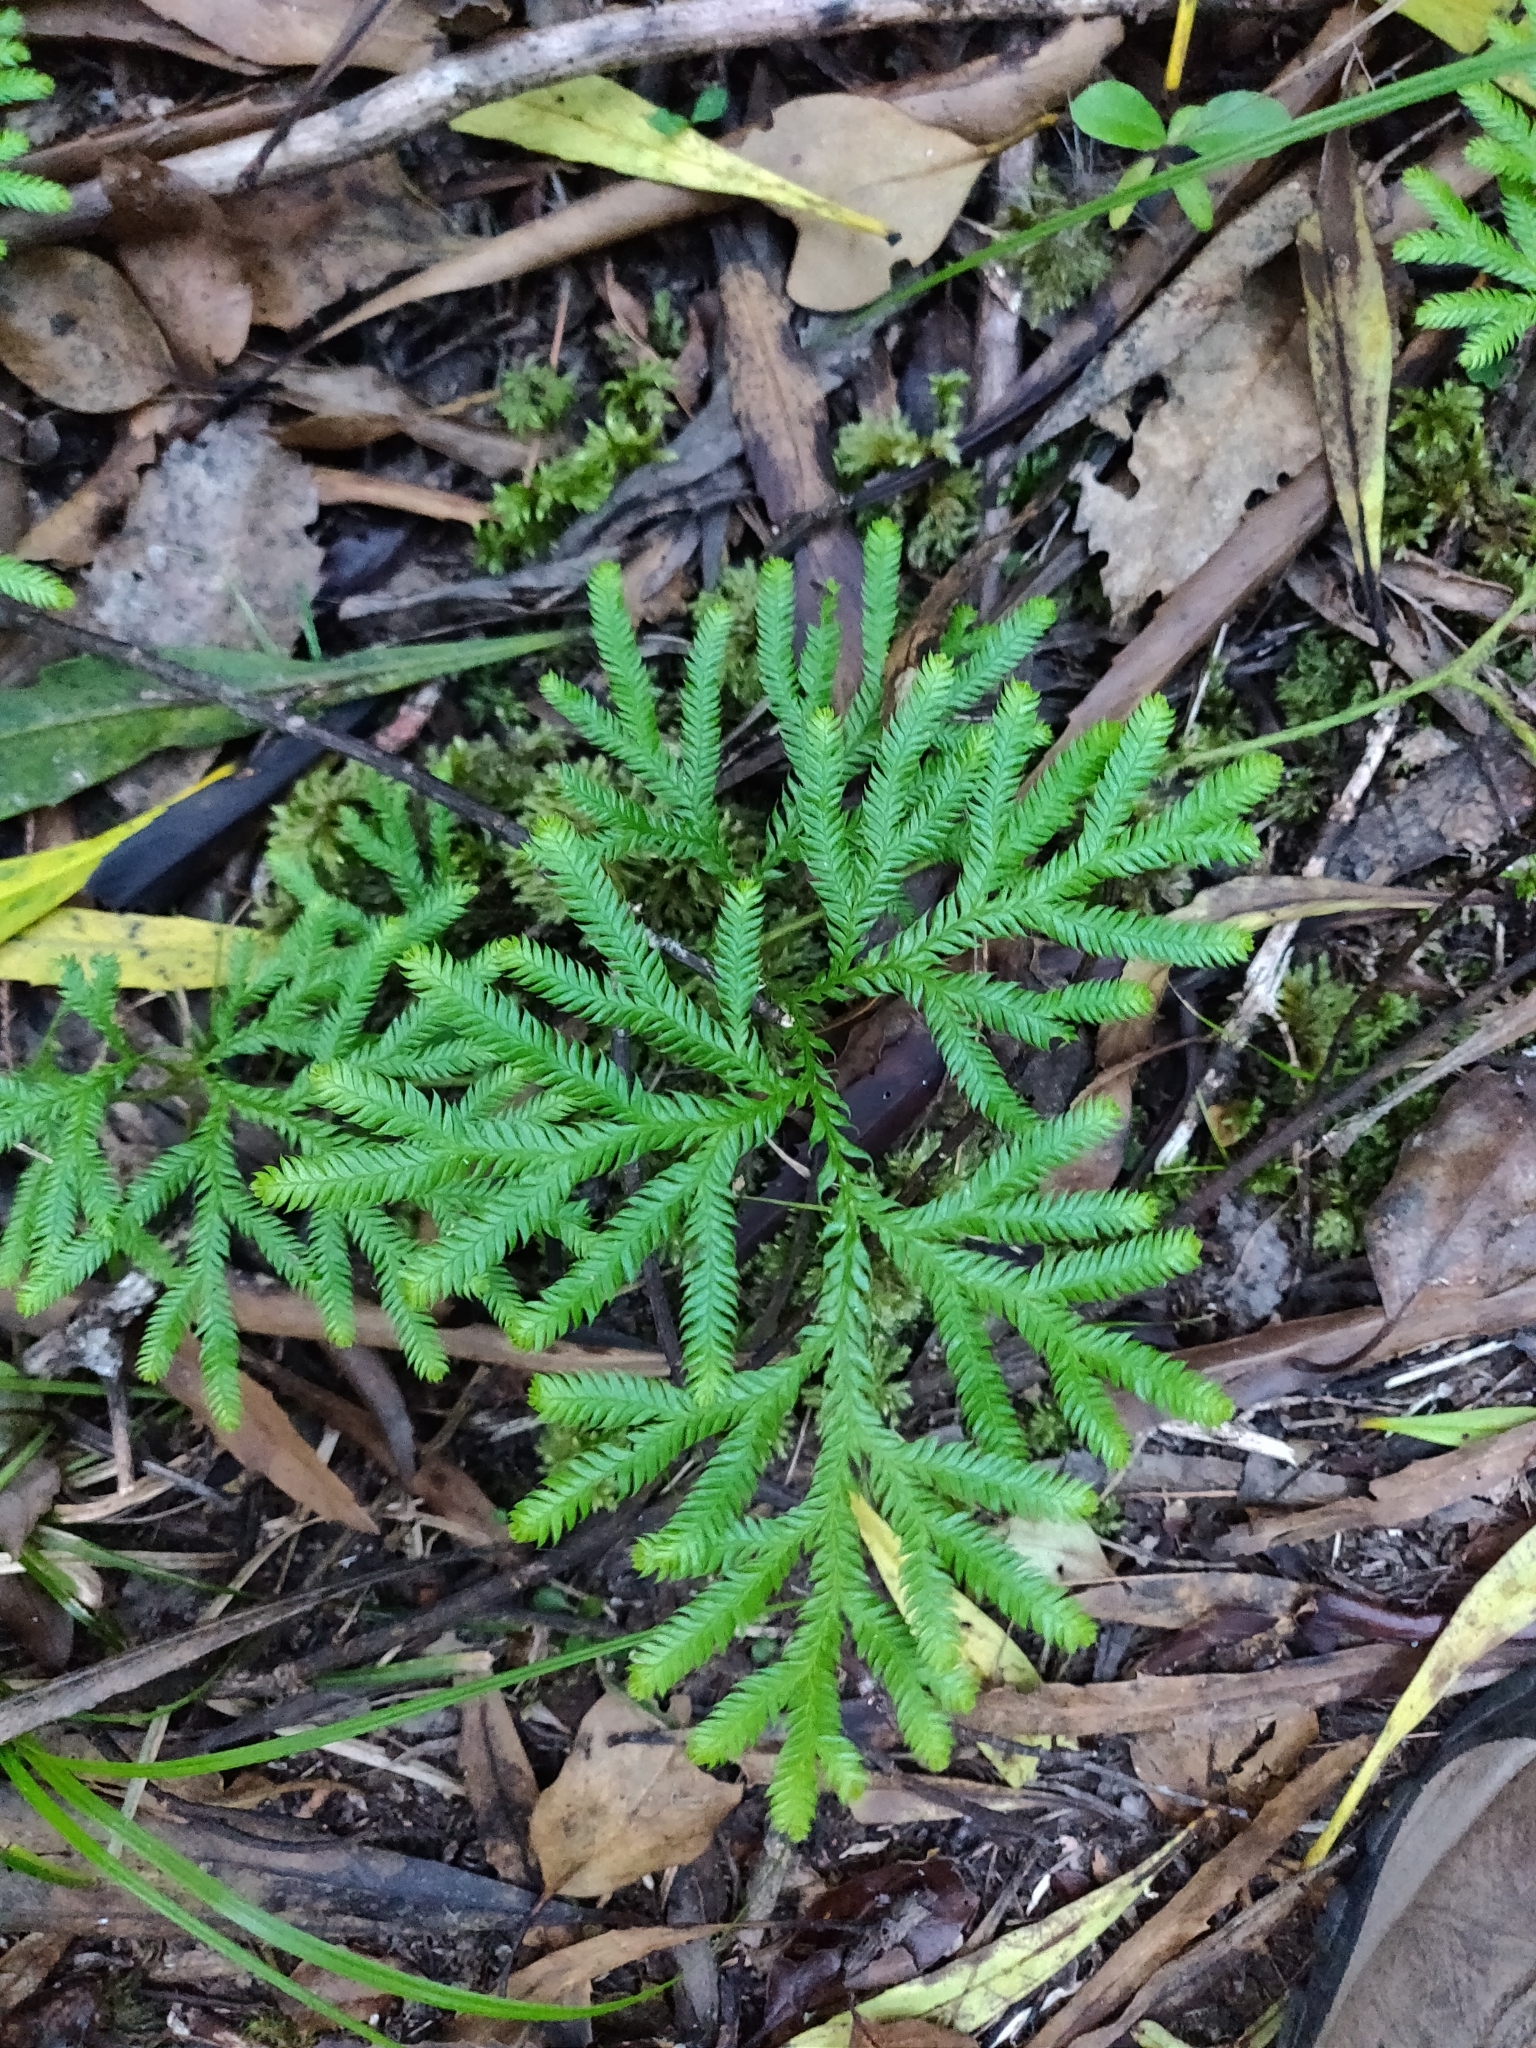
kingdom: Plantae
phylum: Tracheophyta
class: Lycopodiopsida
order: Lycopodiales
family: Lycopodiaceae
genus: Lycopodium
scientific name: Lycopodium volubile
